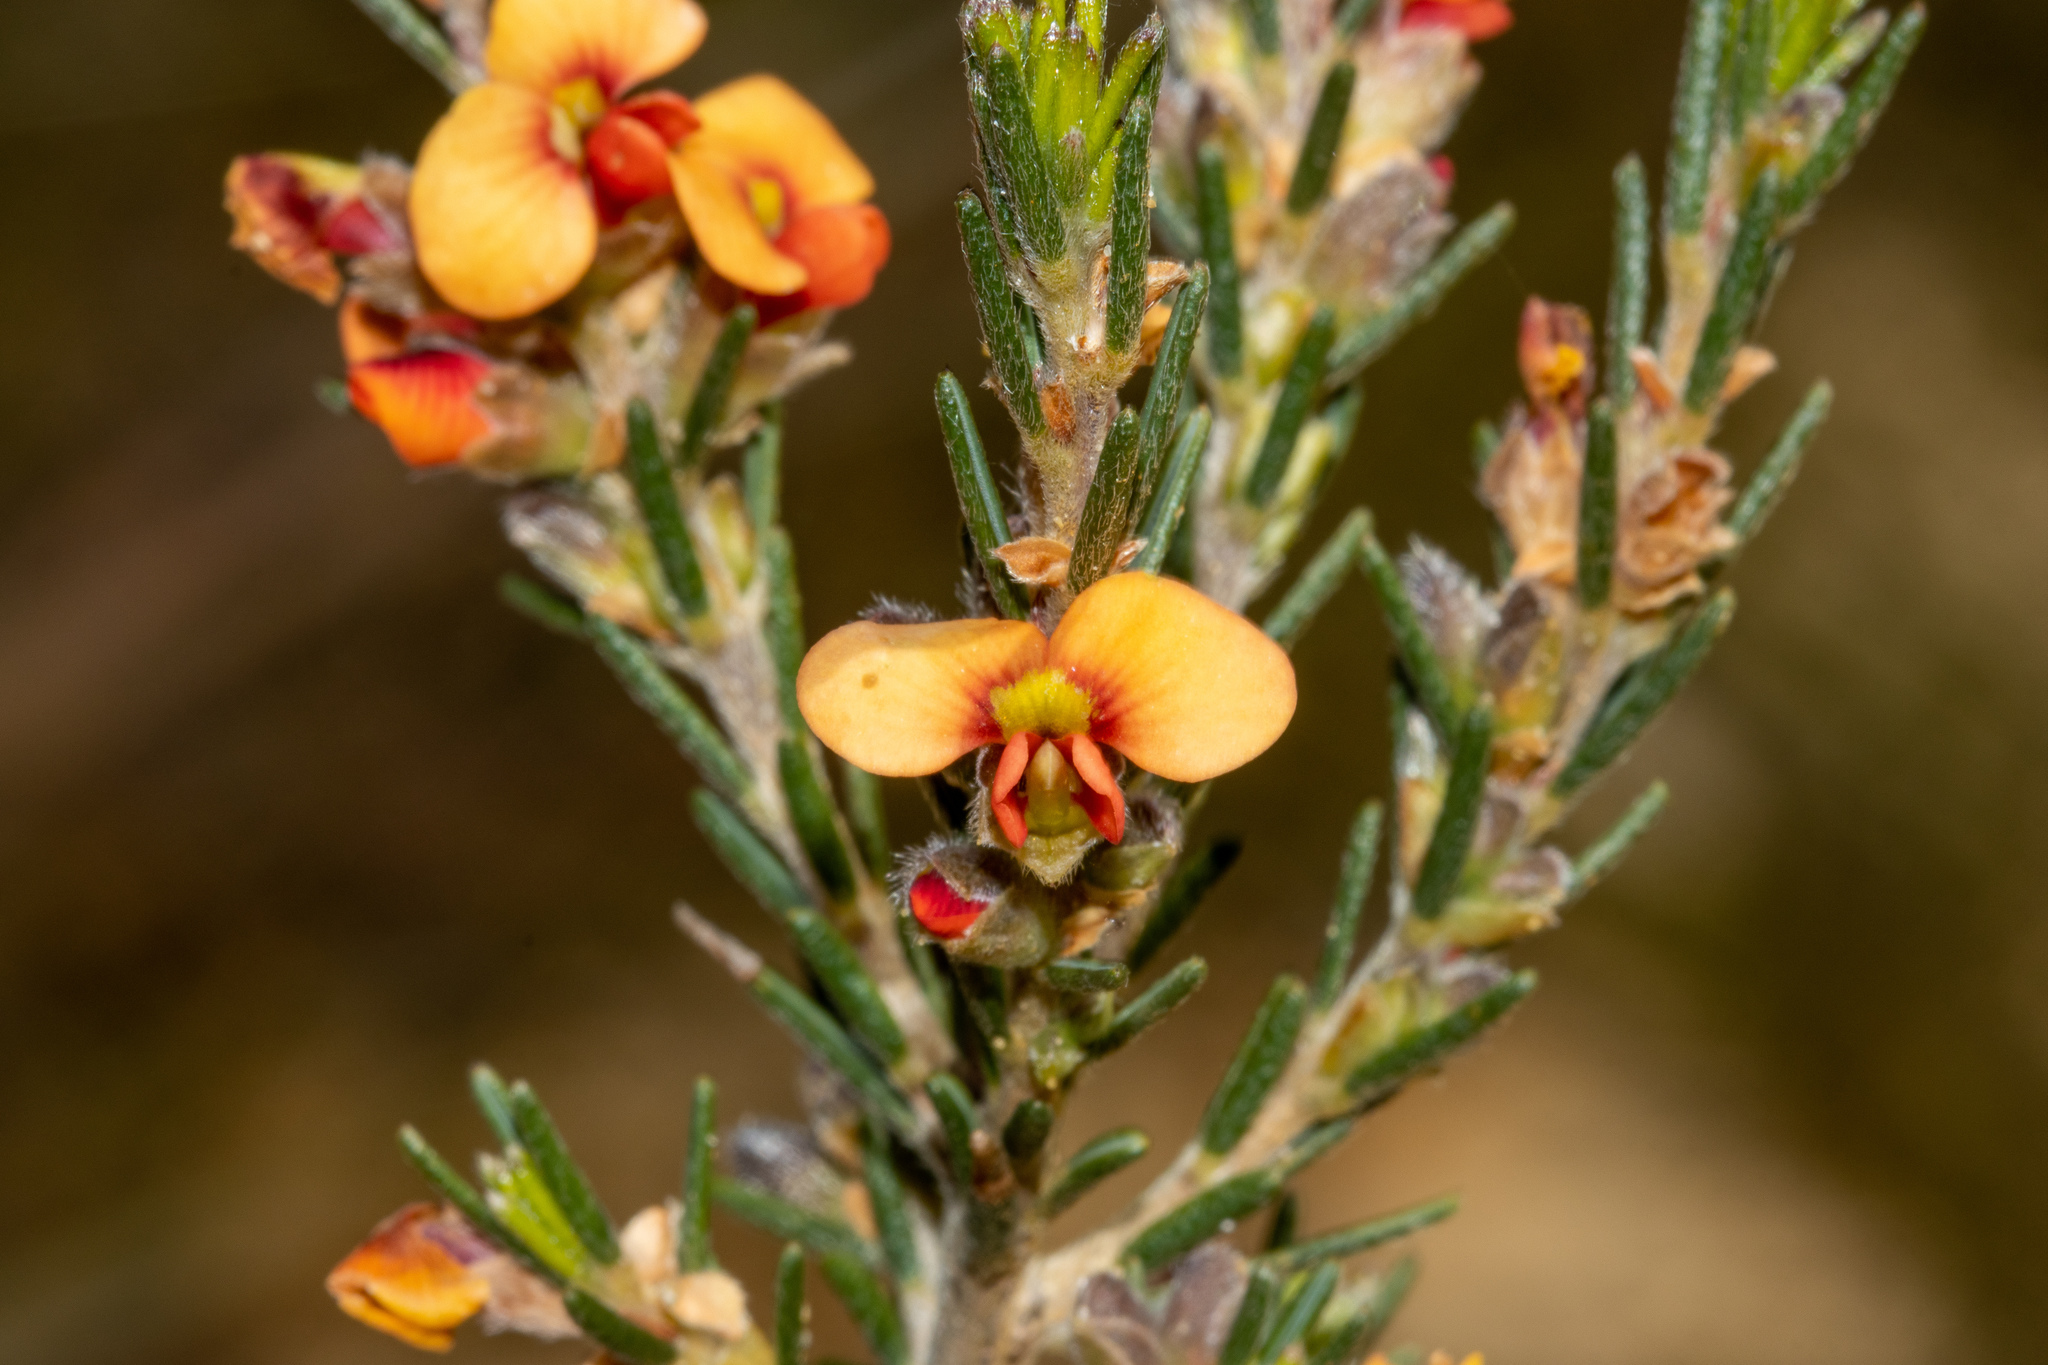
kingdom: Plantae
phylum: Tracheophyta
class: Magnoliopsida
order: Fabales
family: Fabaceae
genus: Dillwynia
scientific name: Dillwynia sericea
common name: Showy parrot-pea
